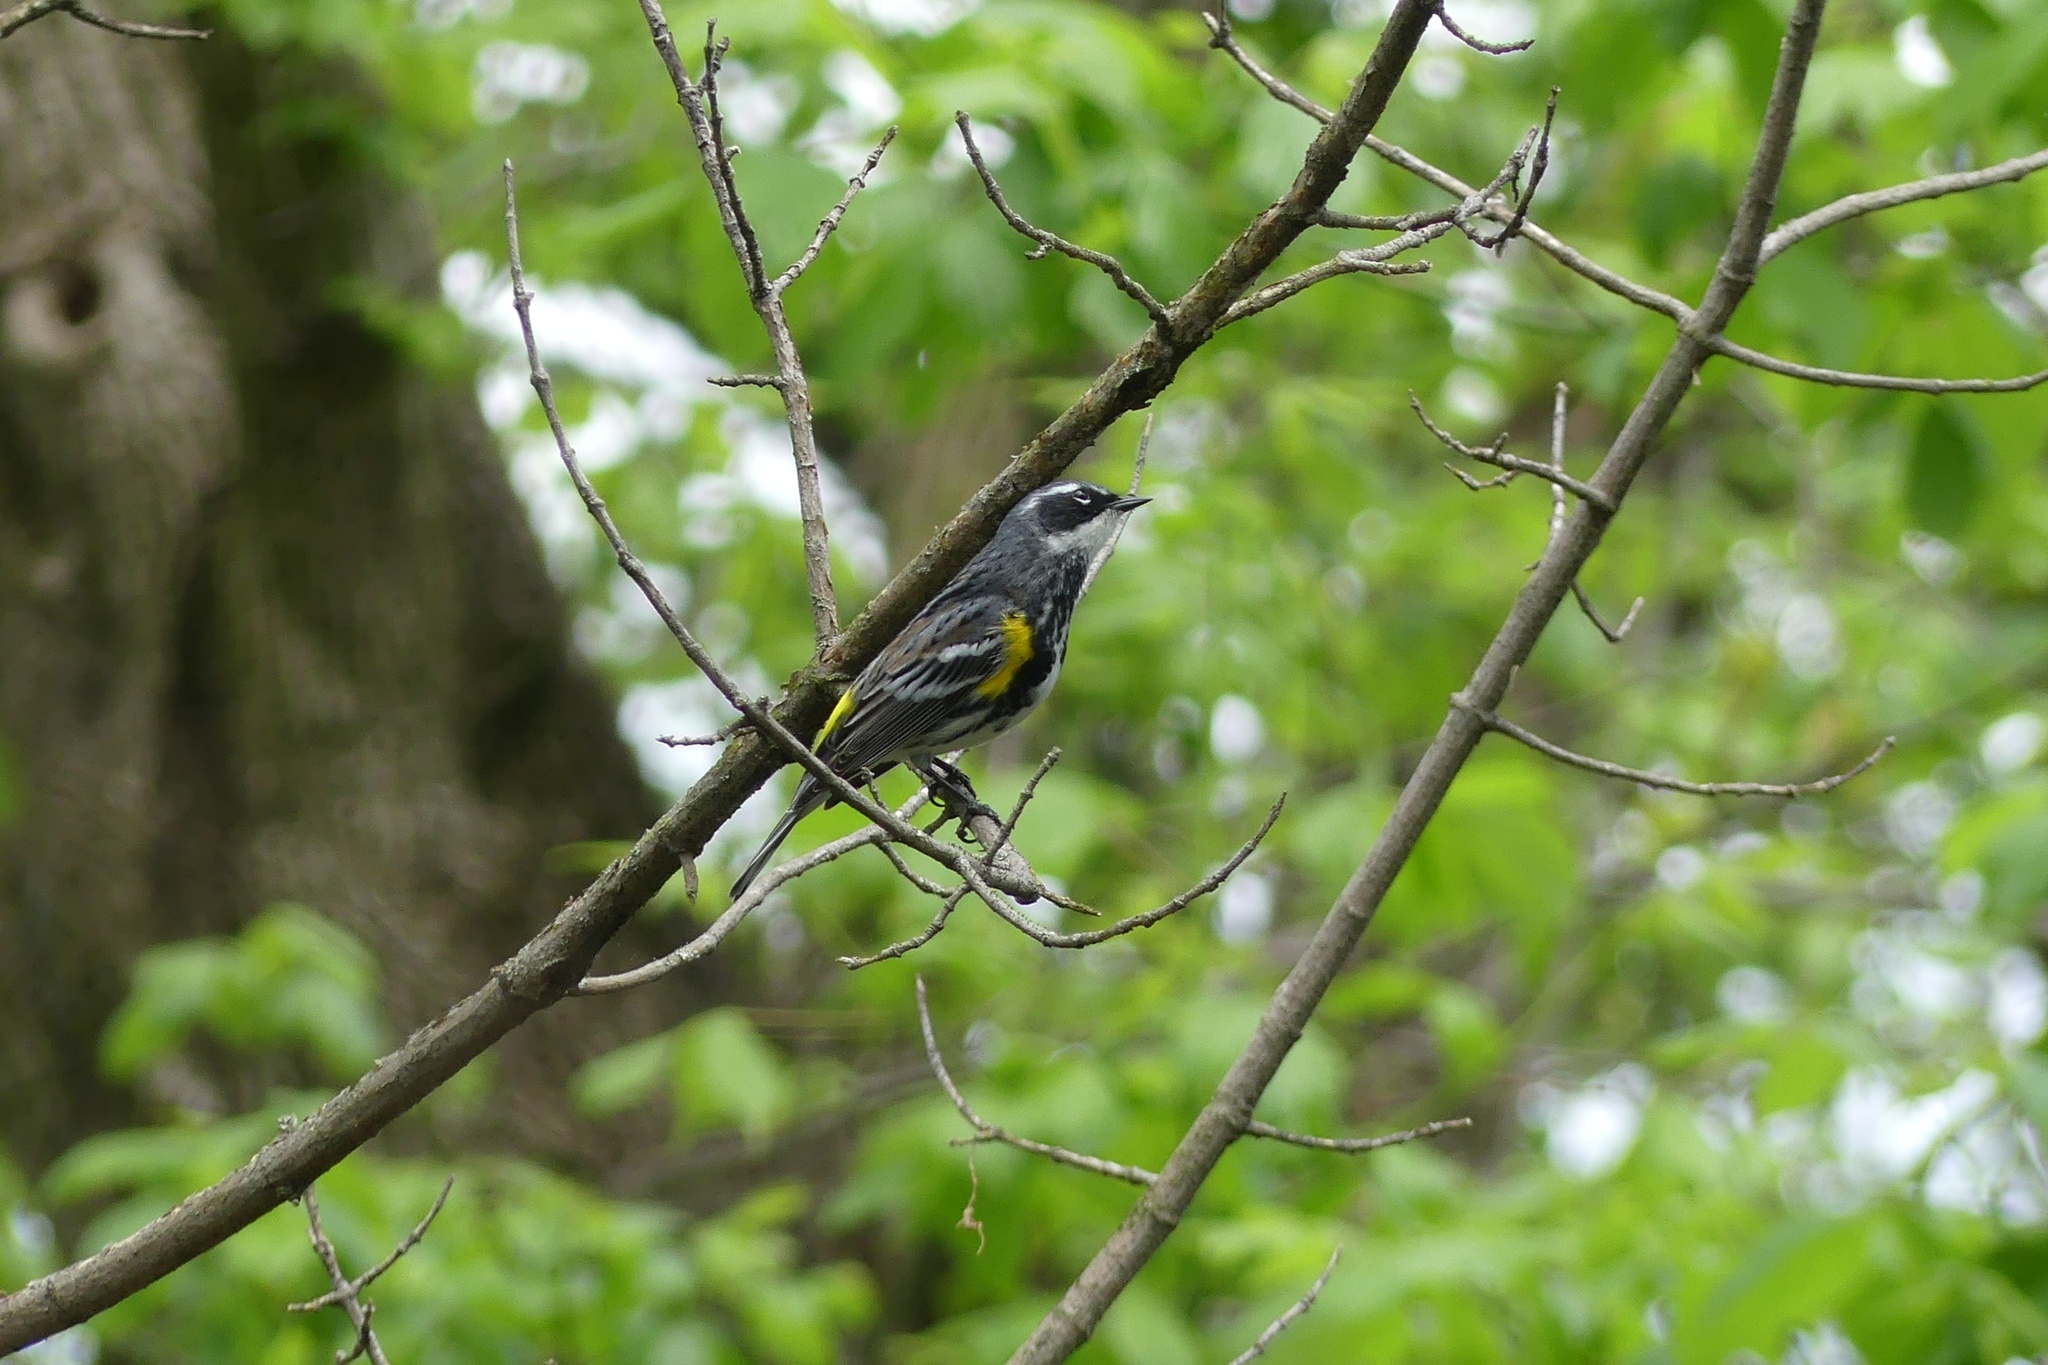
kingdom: Animalia
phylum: Chordata
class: Aves
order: Passeriformes
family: Parulidae
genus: Setophaga
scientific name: Setophaga coronata
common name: Myrtle warbler
